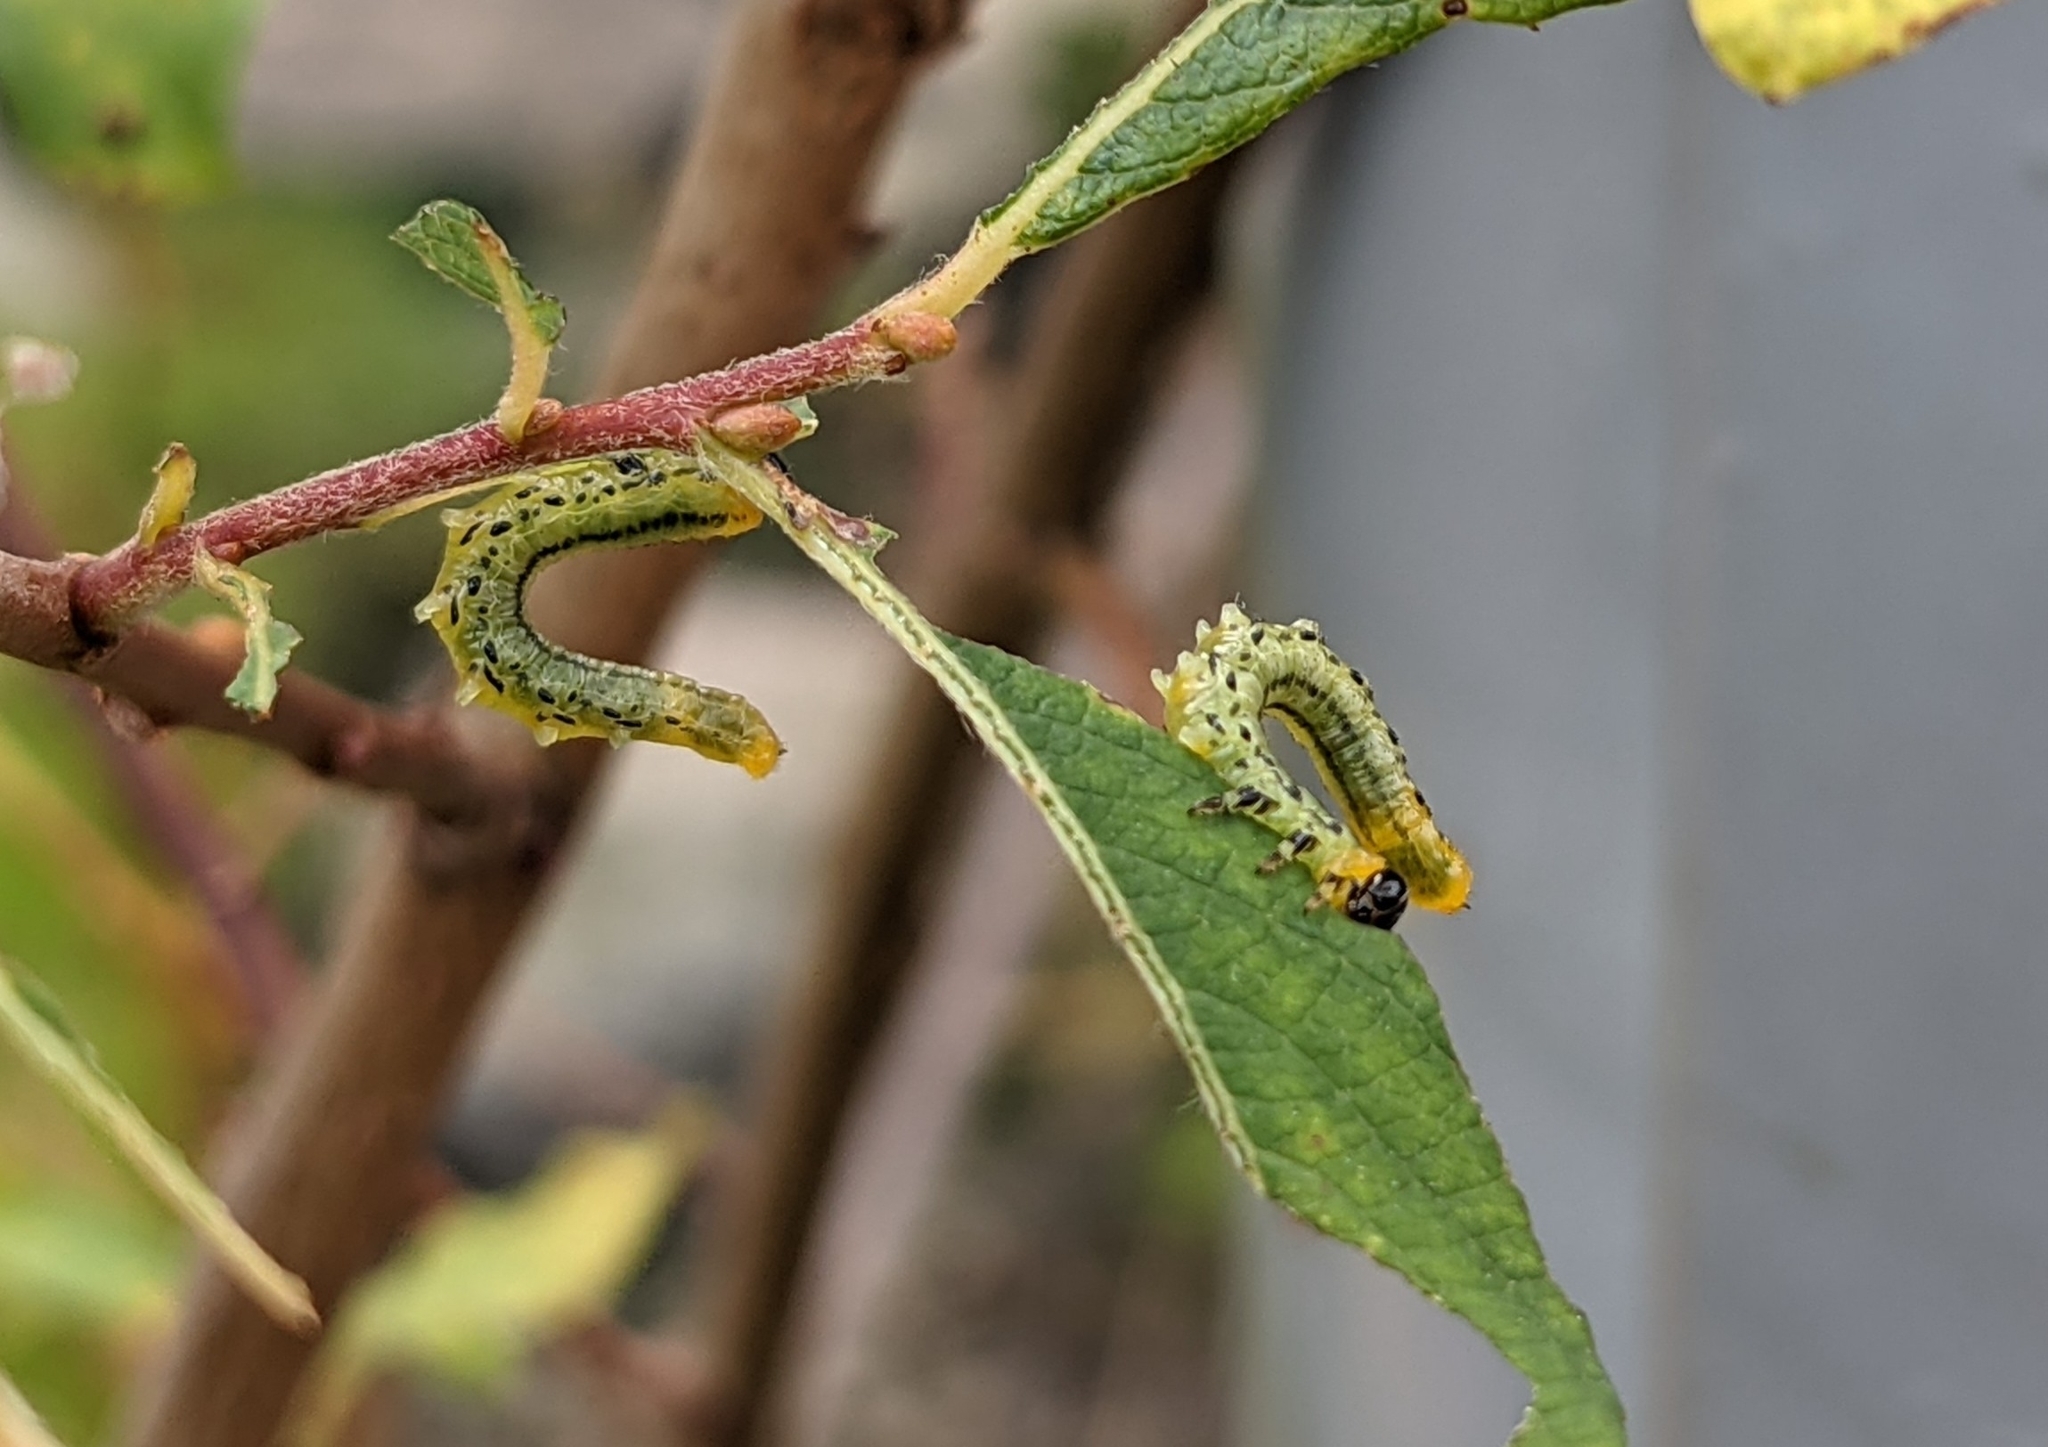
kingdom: Animalia
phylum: Arthropoda
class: Insecta
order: Hymenoptera
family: Tenthredinidae
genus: Nematus
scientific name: Nematus pavidus
